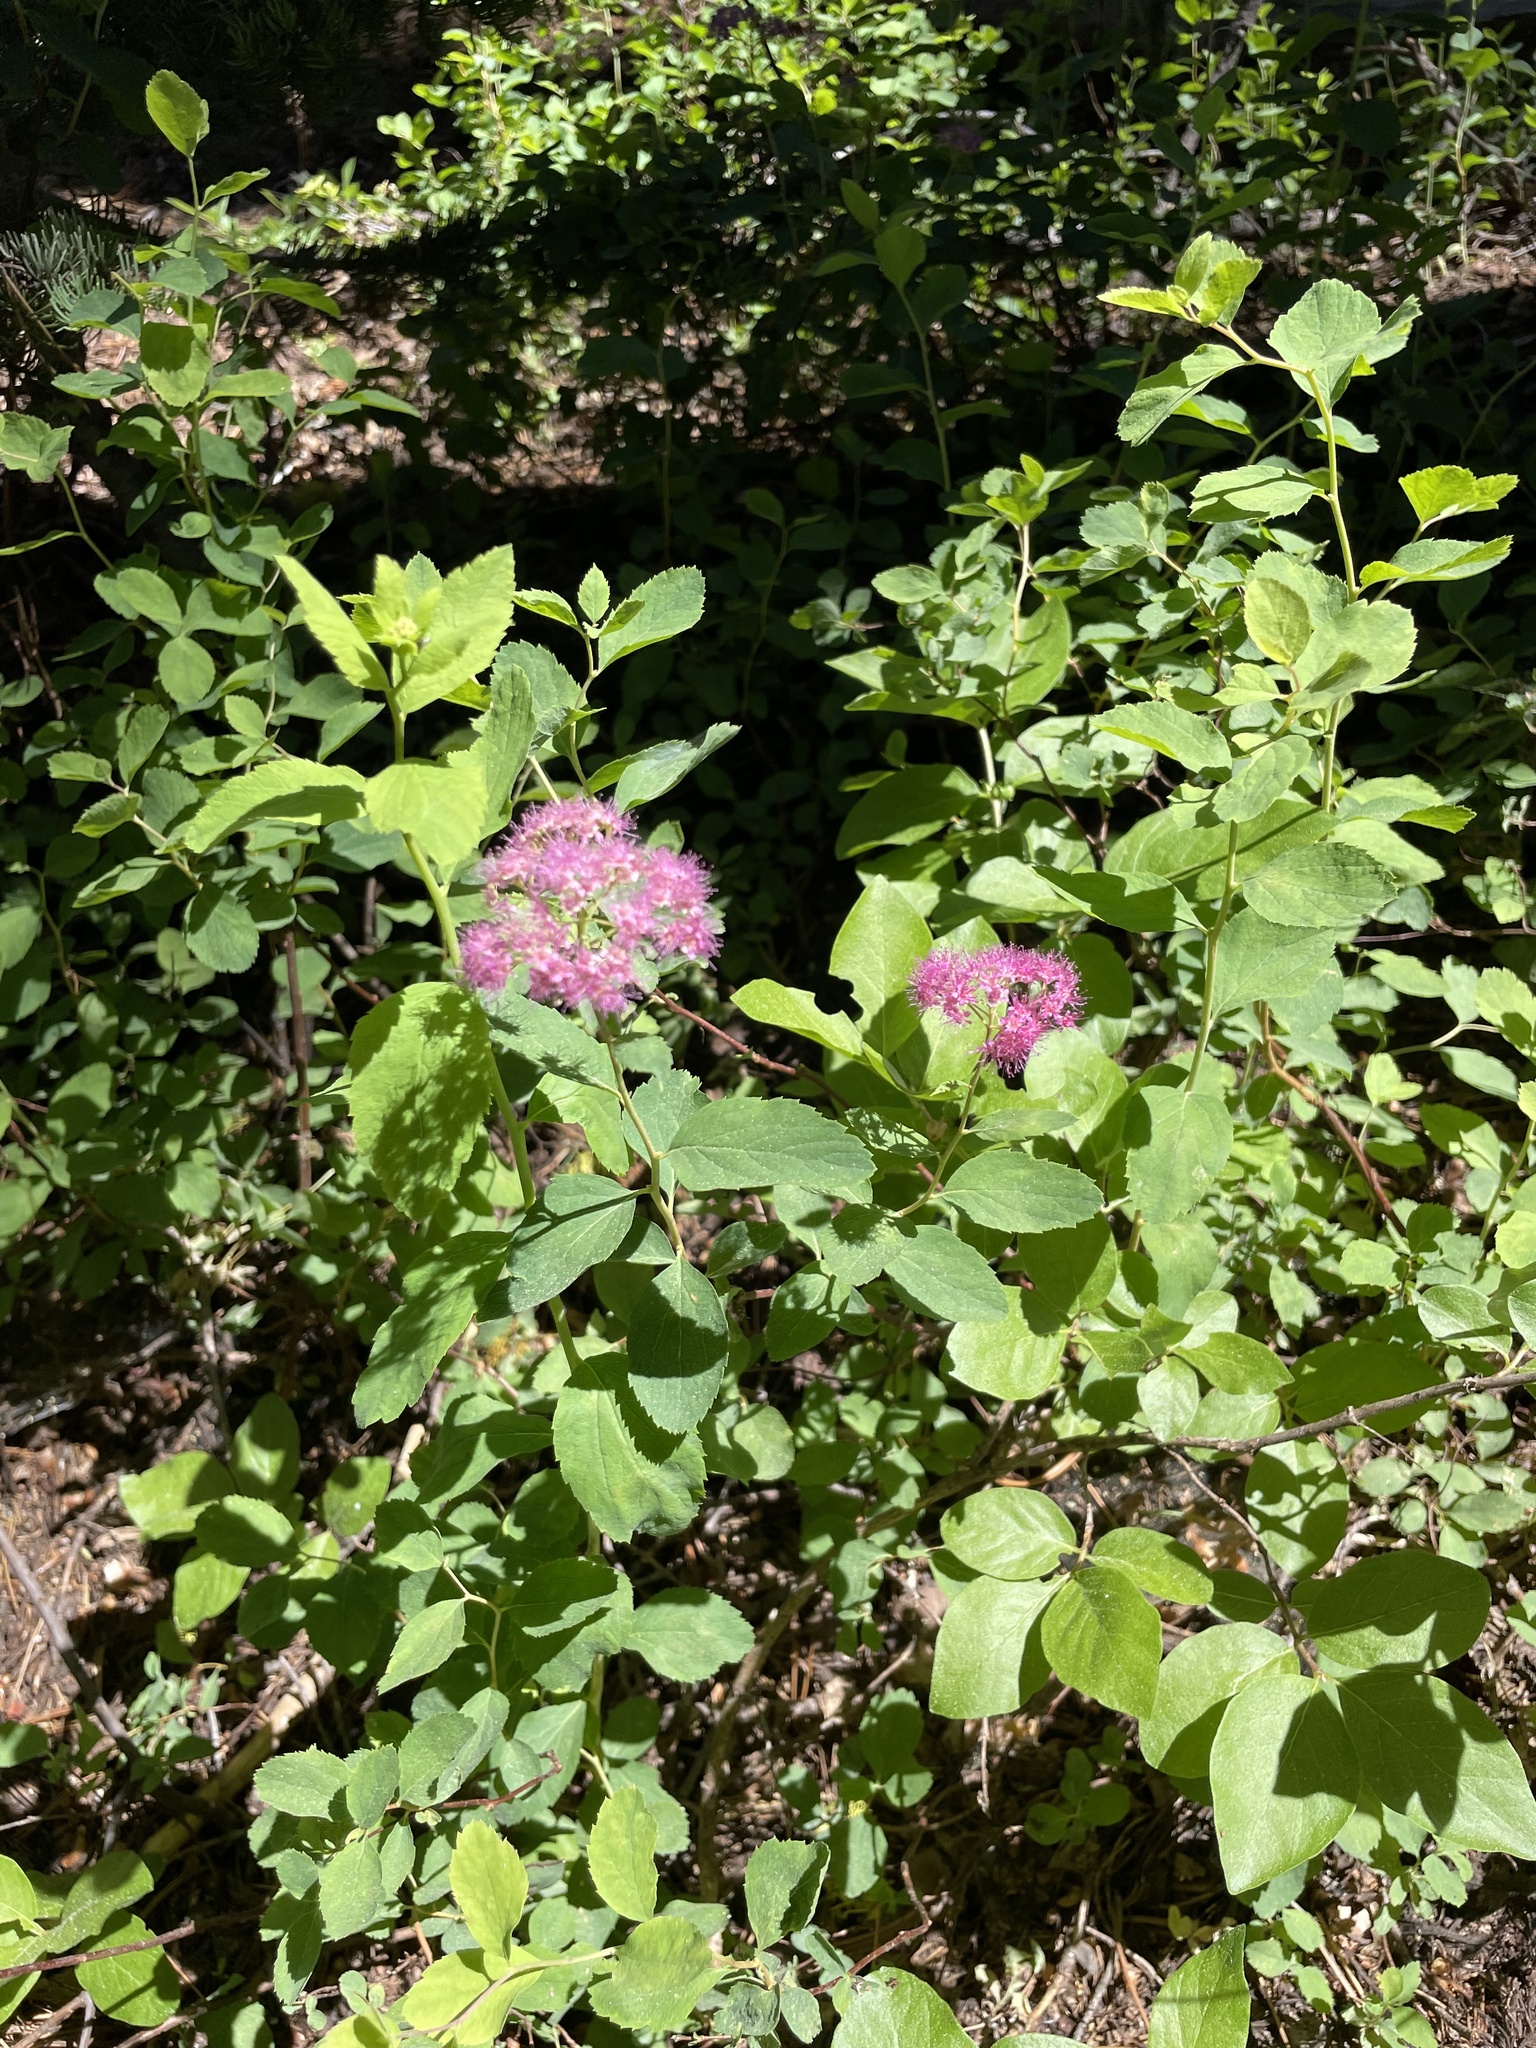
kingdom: Plantae
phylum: Tracheophyta
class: Magnoliopsida
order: Rosales
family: Rosaceae
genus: Spiraea
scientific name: Spiraea splendens
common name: Subalpine meadowsweet
